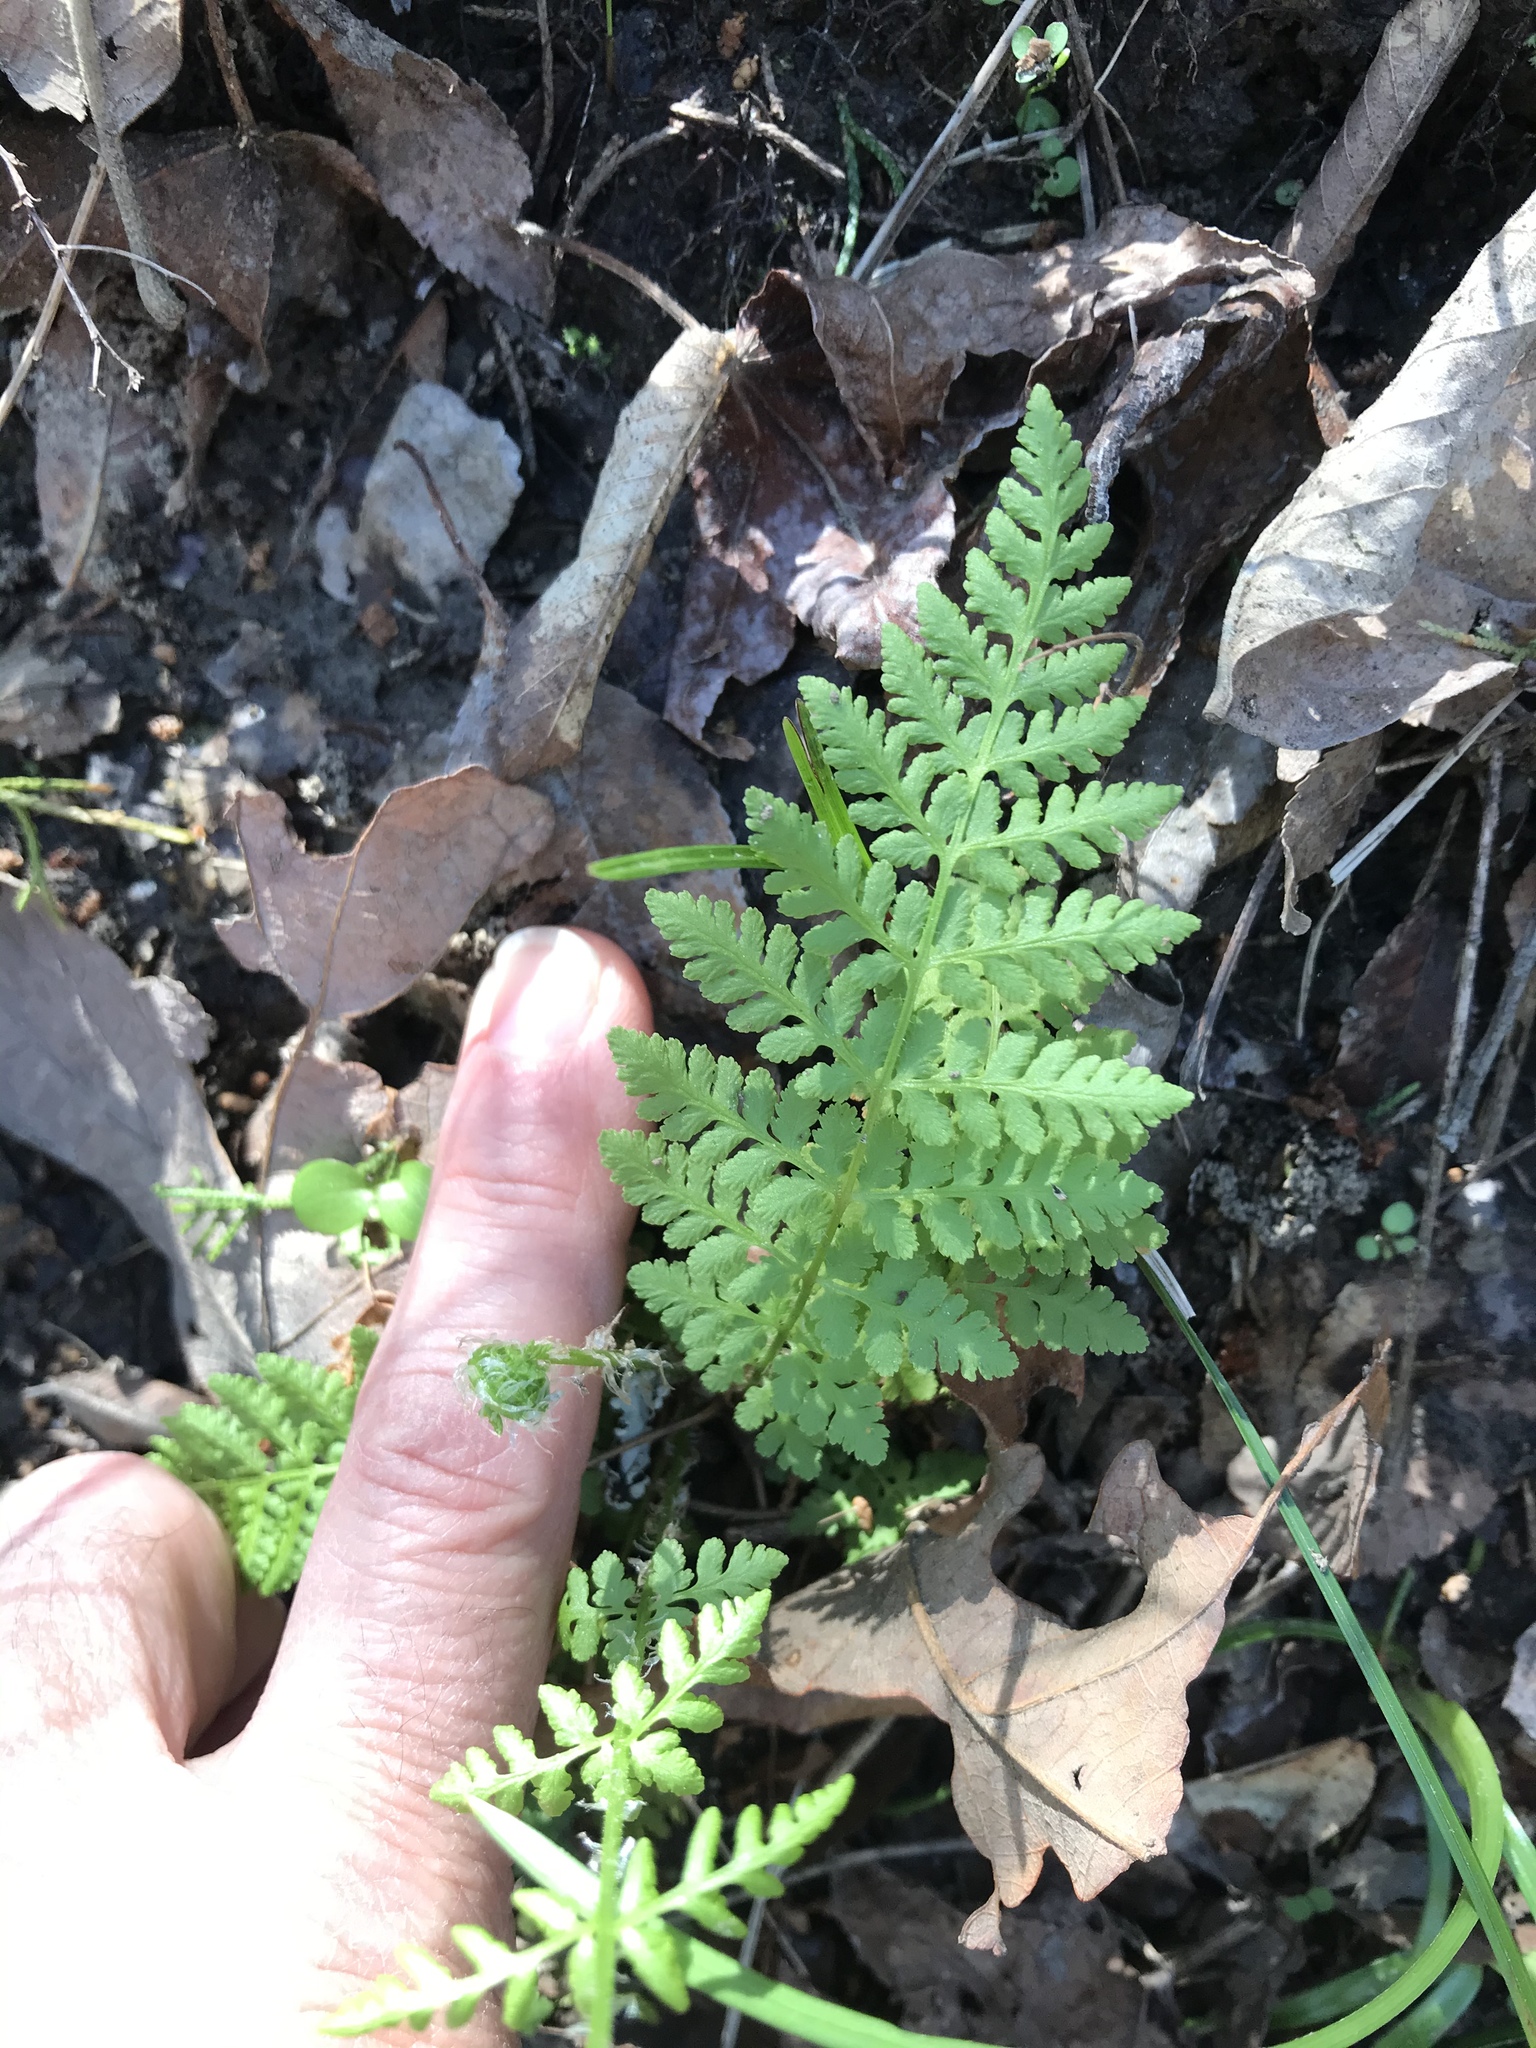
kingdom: Plantae
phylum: Tracheophyta
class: Polypodiopsida
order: Polypodiales
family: Woodsiaceae
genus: Physematium
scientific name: Physematium obtusum
